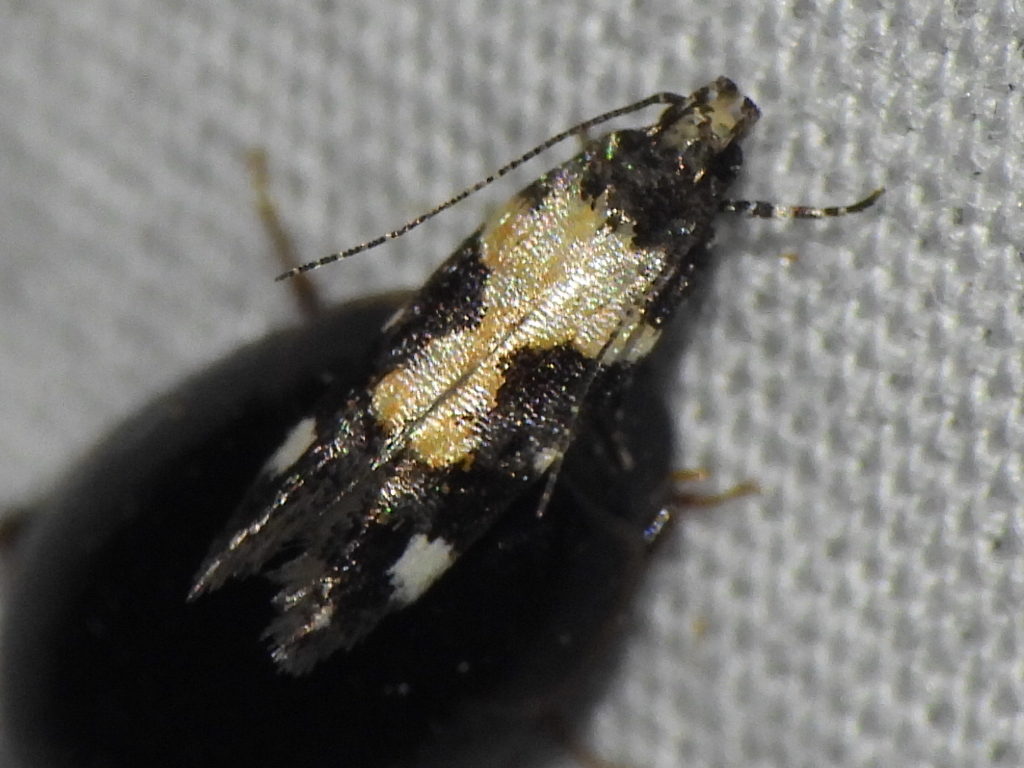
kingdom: Animalia
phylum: Arthropoda
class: Insecta
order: Lepidoptera
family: Gelechiidae
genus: Stegasta
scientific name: Stegasta bosqueella
